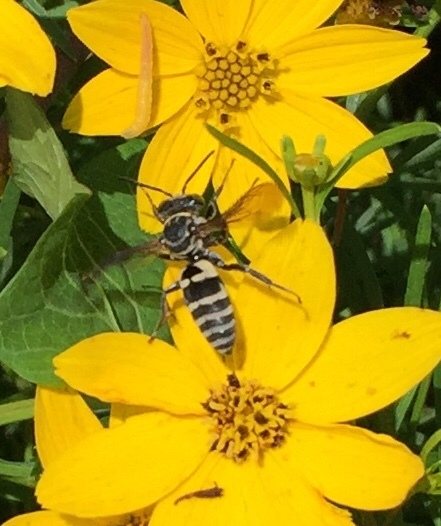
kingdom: Animalia
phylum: Arthropoda
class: Insecta
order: Hymenoptera
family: Apidae
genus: Triepeolus
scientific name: Triepeolus lunatus
